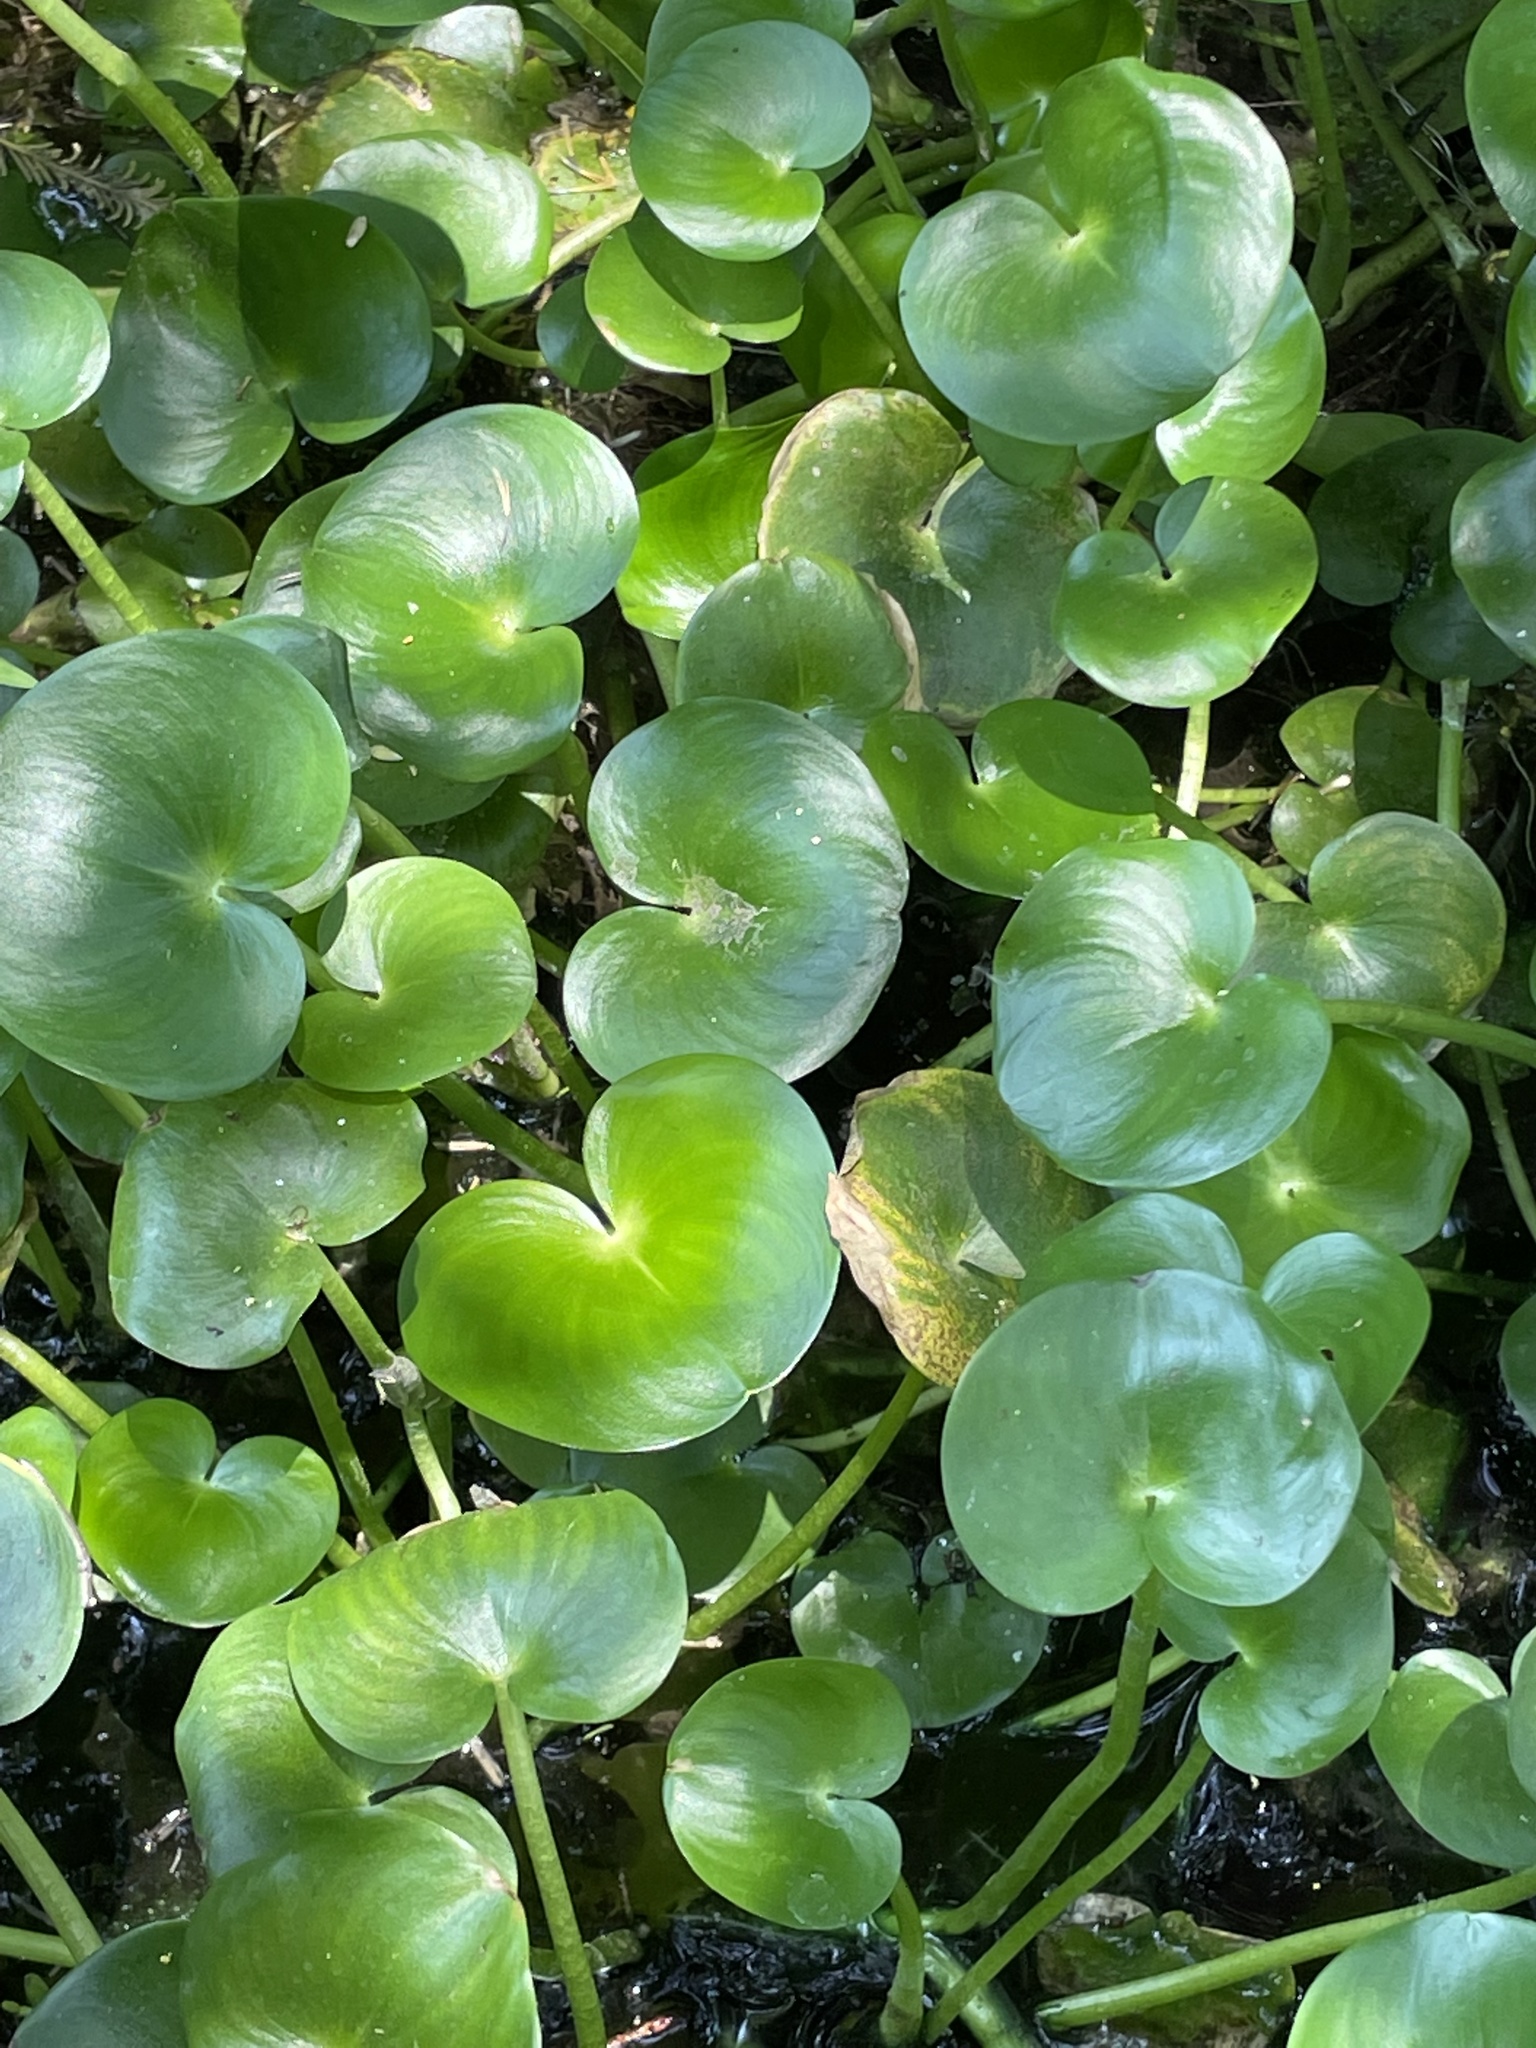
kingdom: Plantae
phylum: Tracheophyta
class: Liliopsida
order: Commelinales
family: Pontederiaceae
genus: Heteranthera
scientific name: Heteranthera reniformis
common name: Kidneyleaf mudplantain
